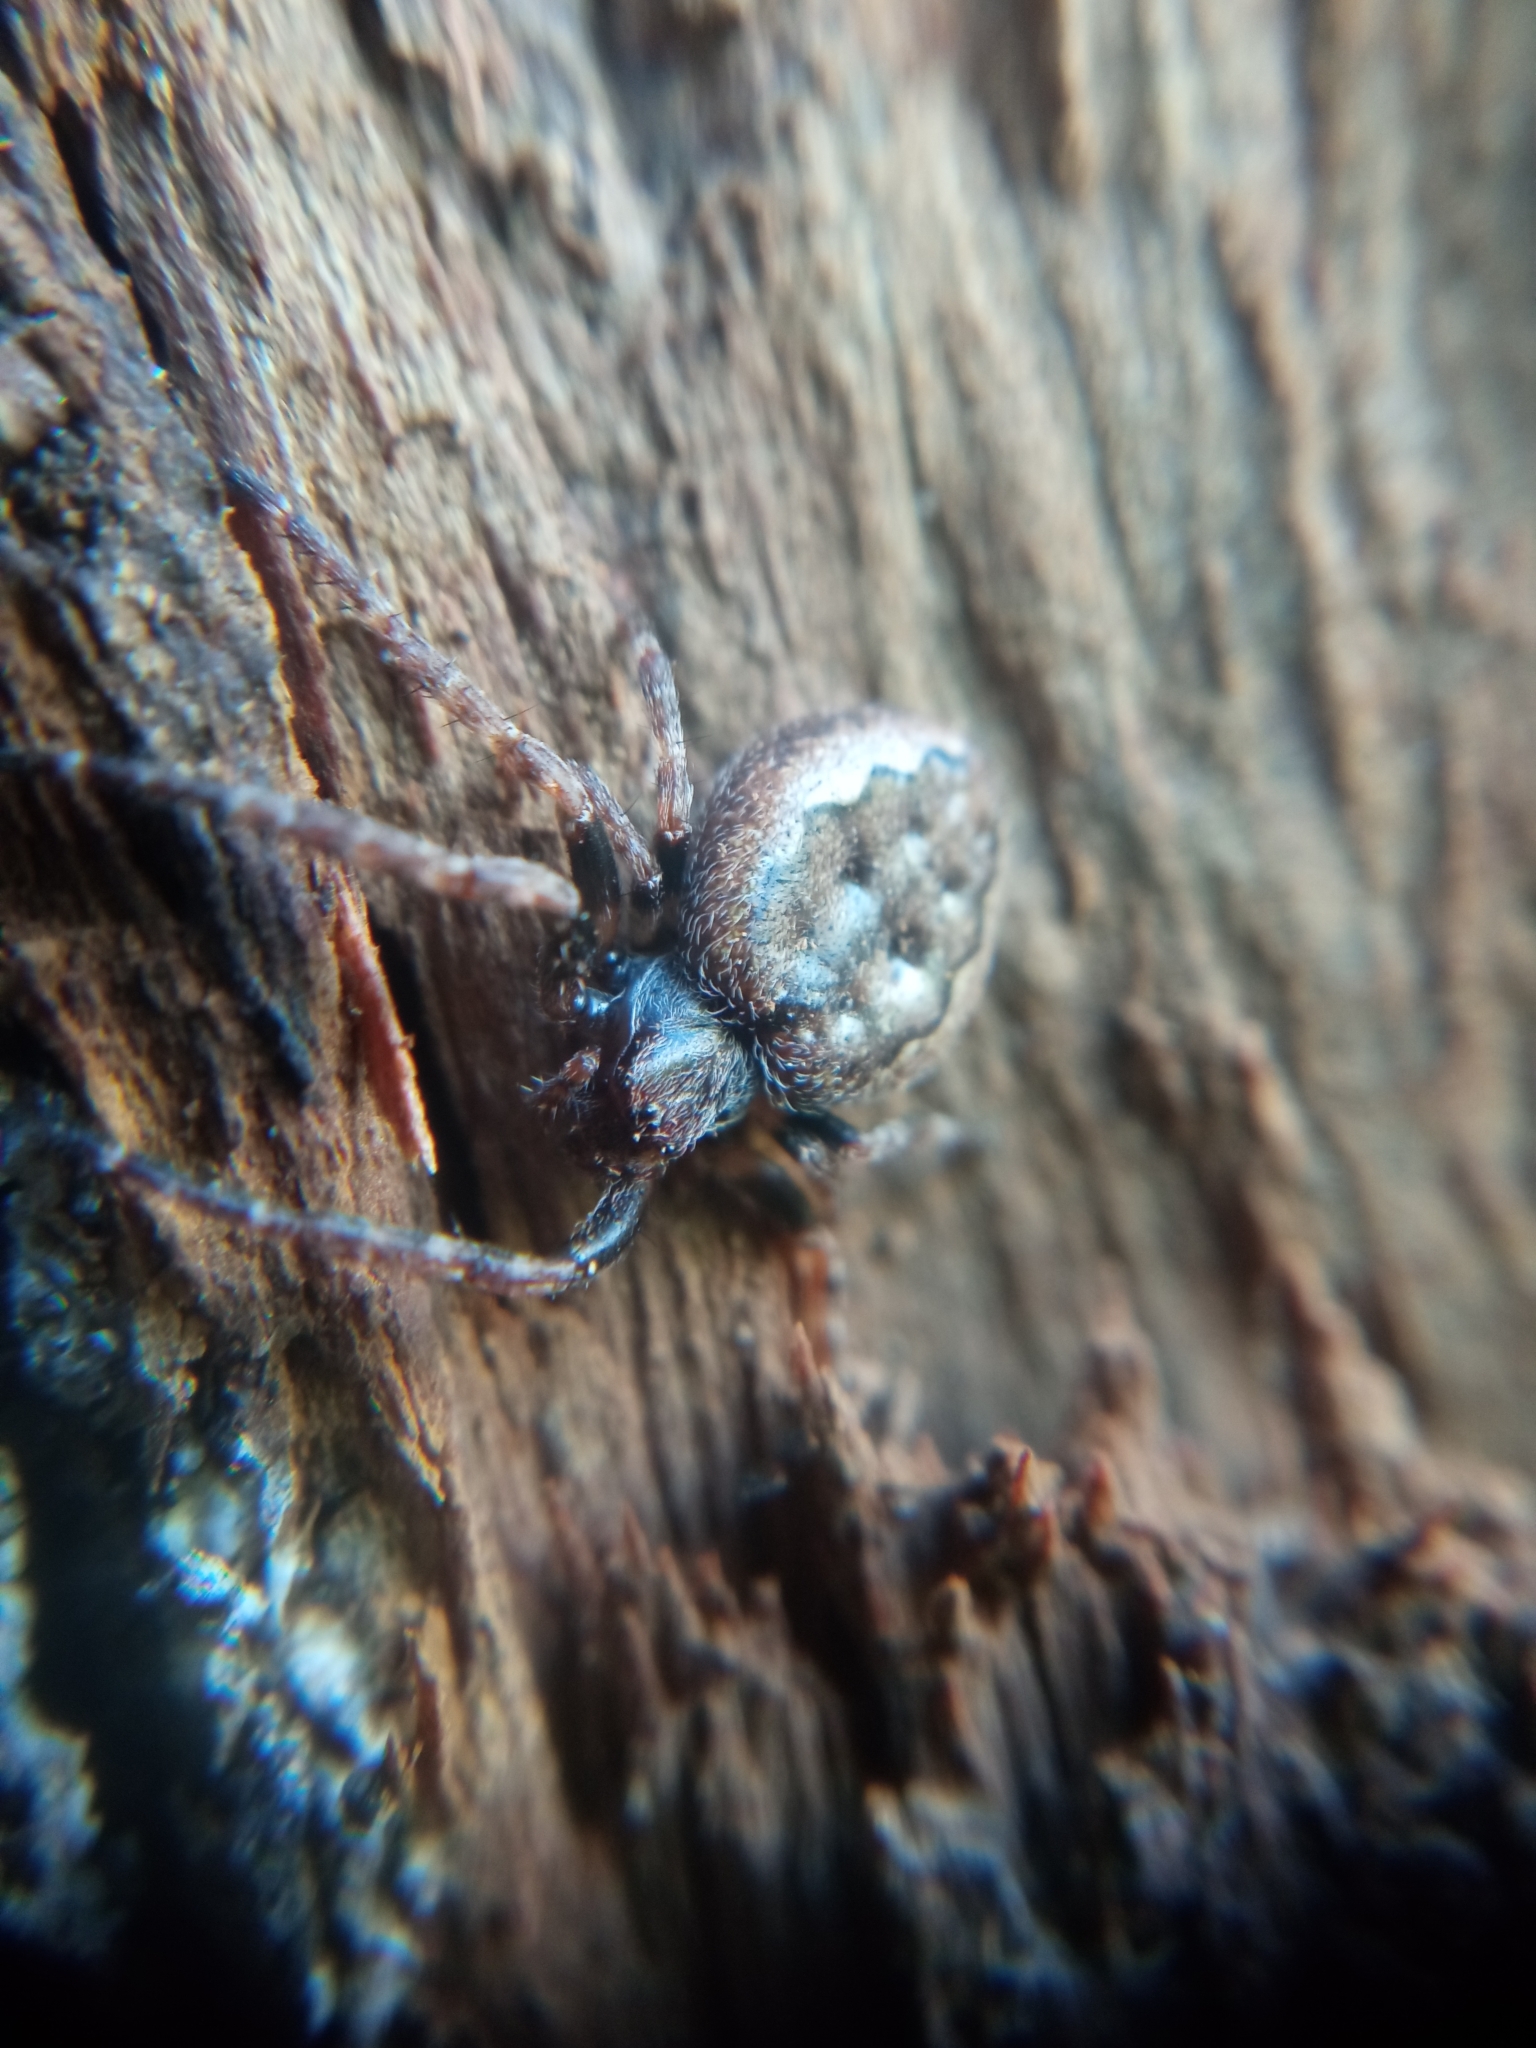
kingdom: Animalia
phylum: Arthropoda
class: Arachnida
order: Araneae
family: Araneidae
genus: Nuctenea
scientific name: Nuctenea umbratica
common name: Toad spider
